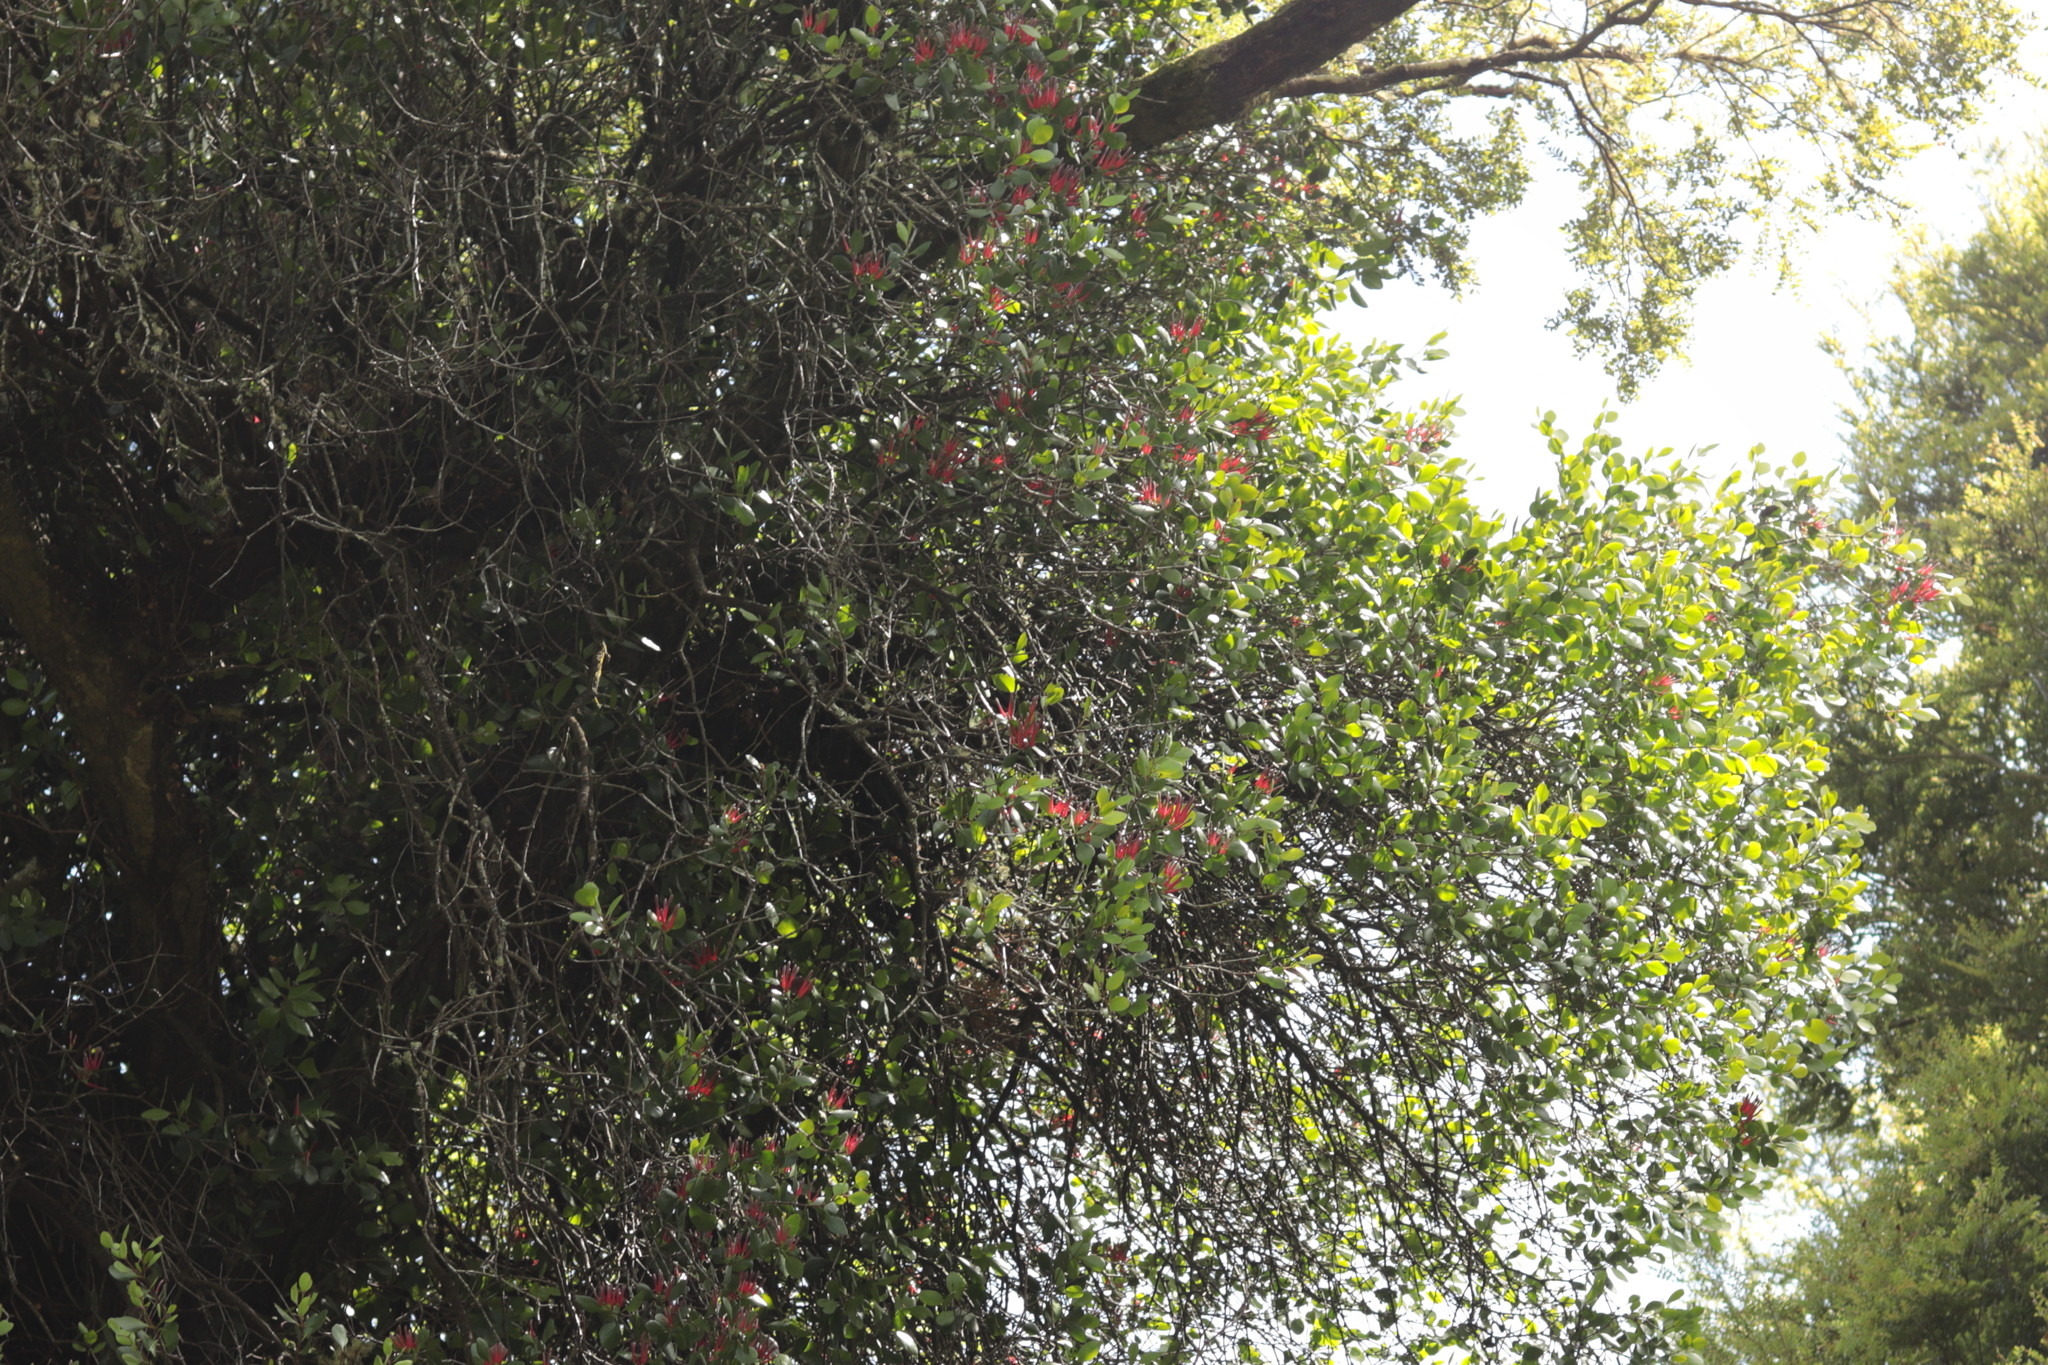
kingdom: Plantae
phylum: Tracheophyta
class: Magnoliopsida
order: Santalales
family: Loranthaceae
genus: Peraxilla
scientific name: Peraxilla colensoi
